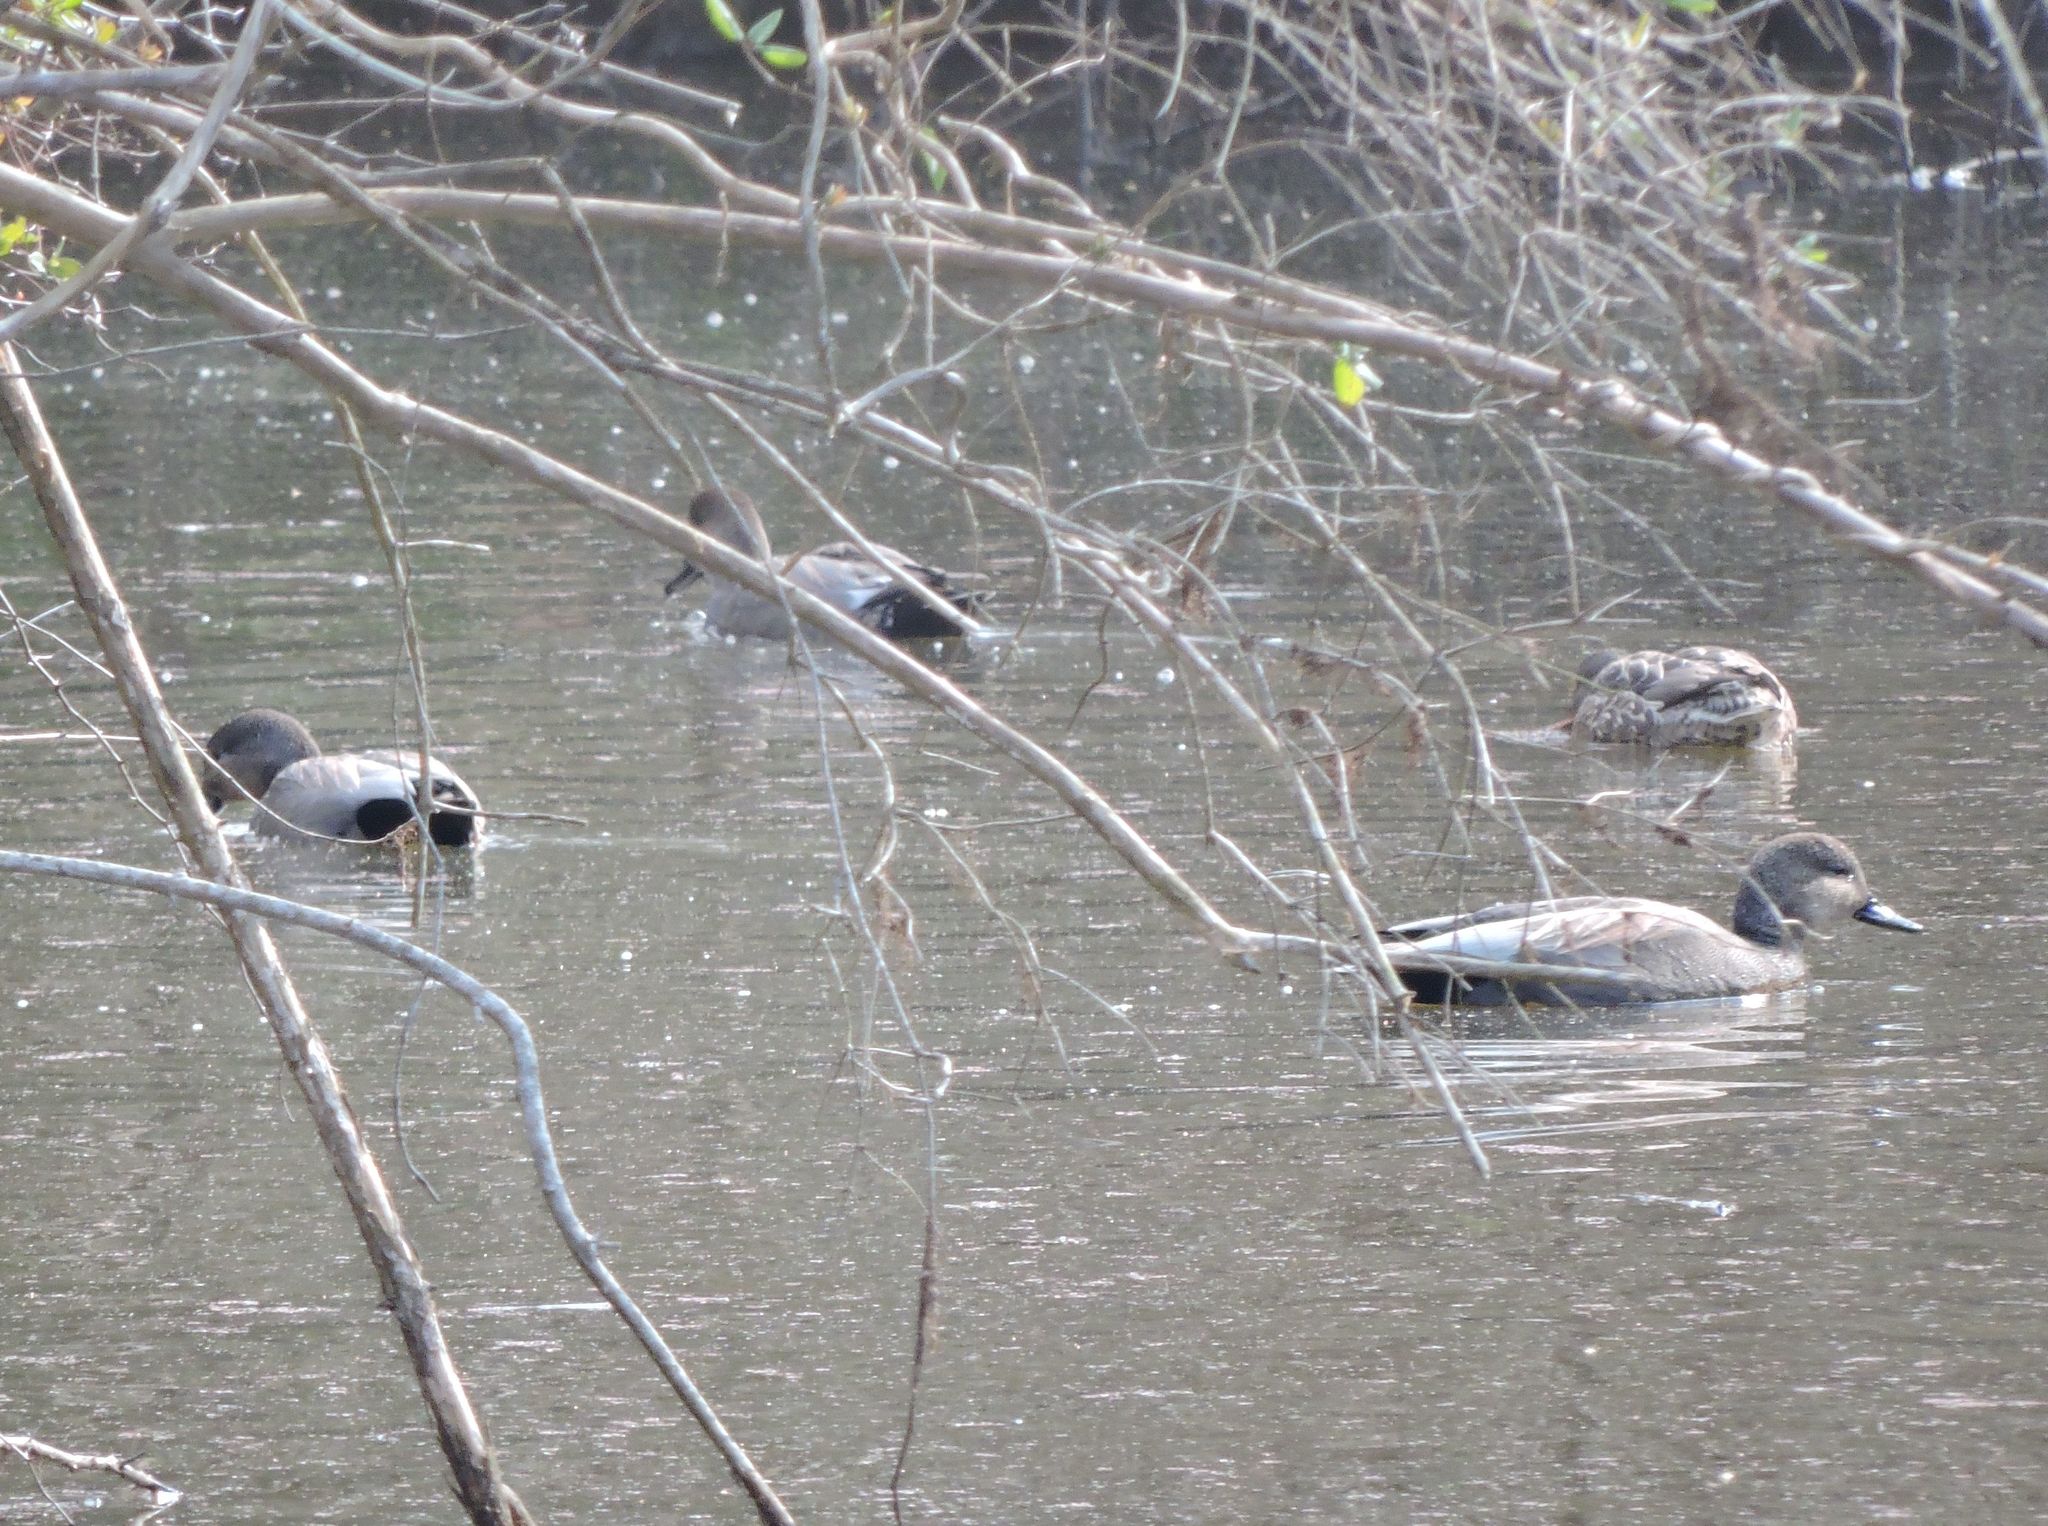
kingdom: Animalia
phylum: Chordata
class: Aves
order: Anseriformes
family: Anatidae
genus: Mareca
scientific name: Mareca strepera
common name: Gadwall
